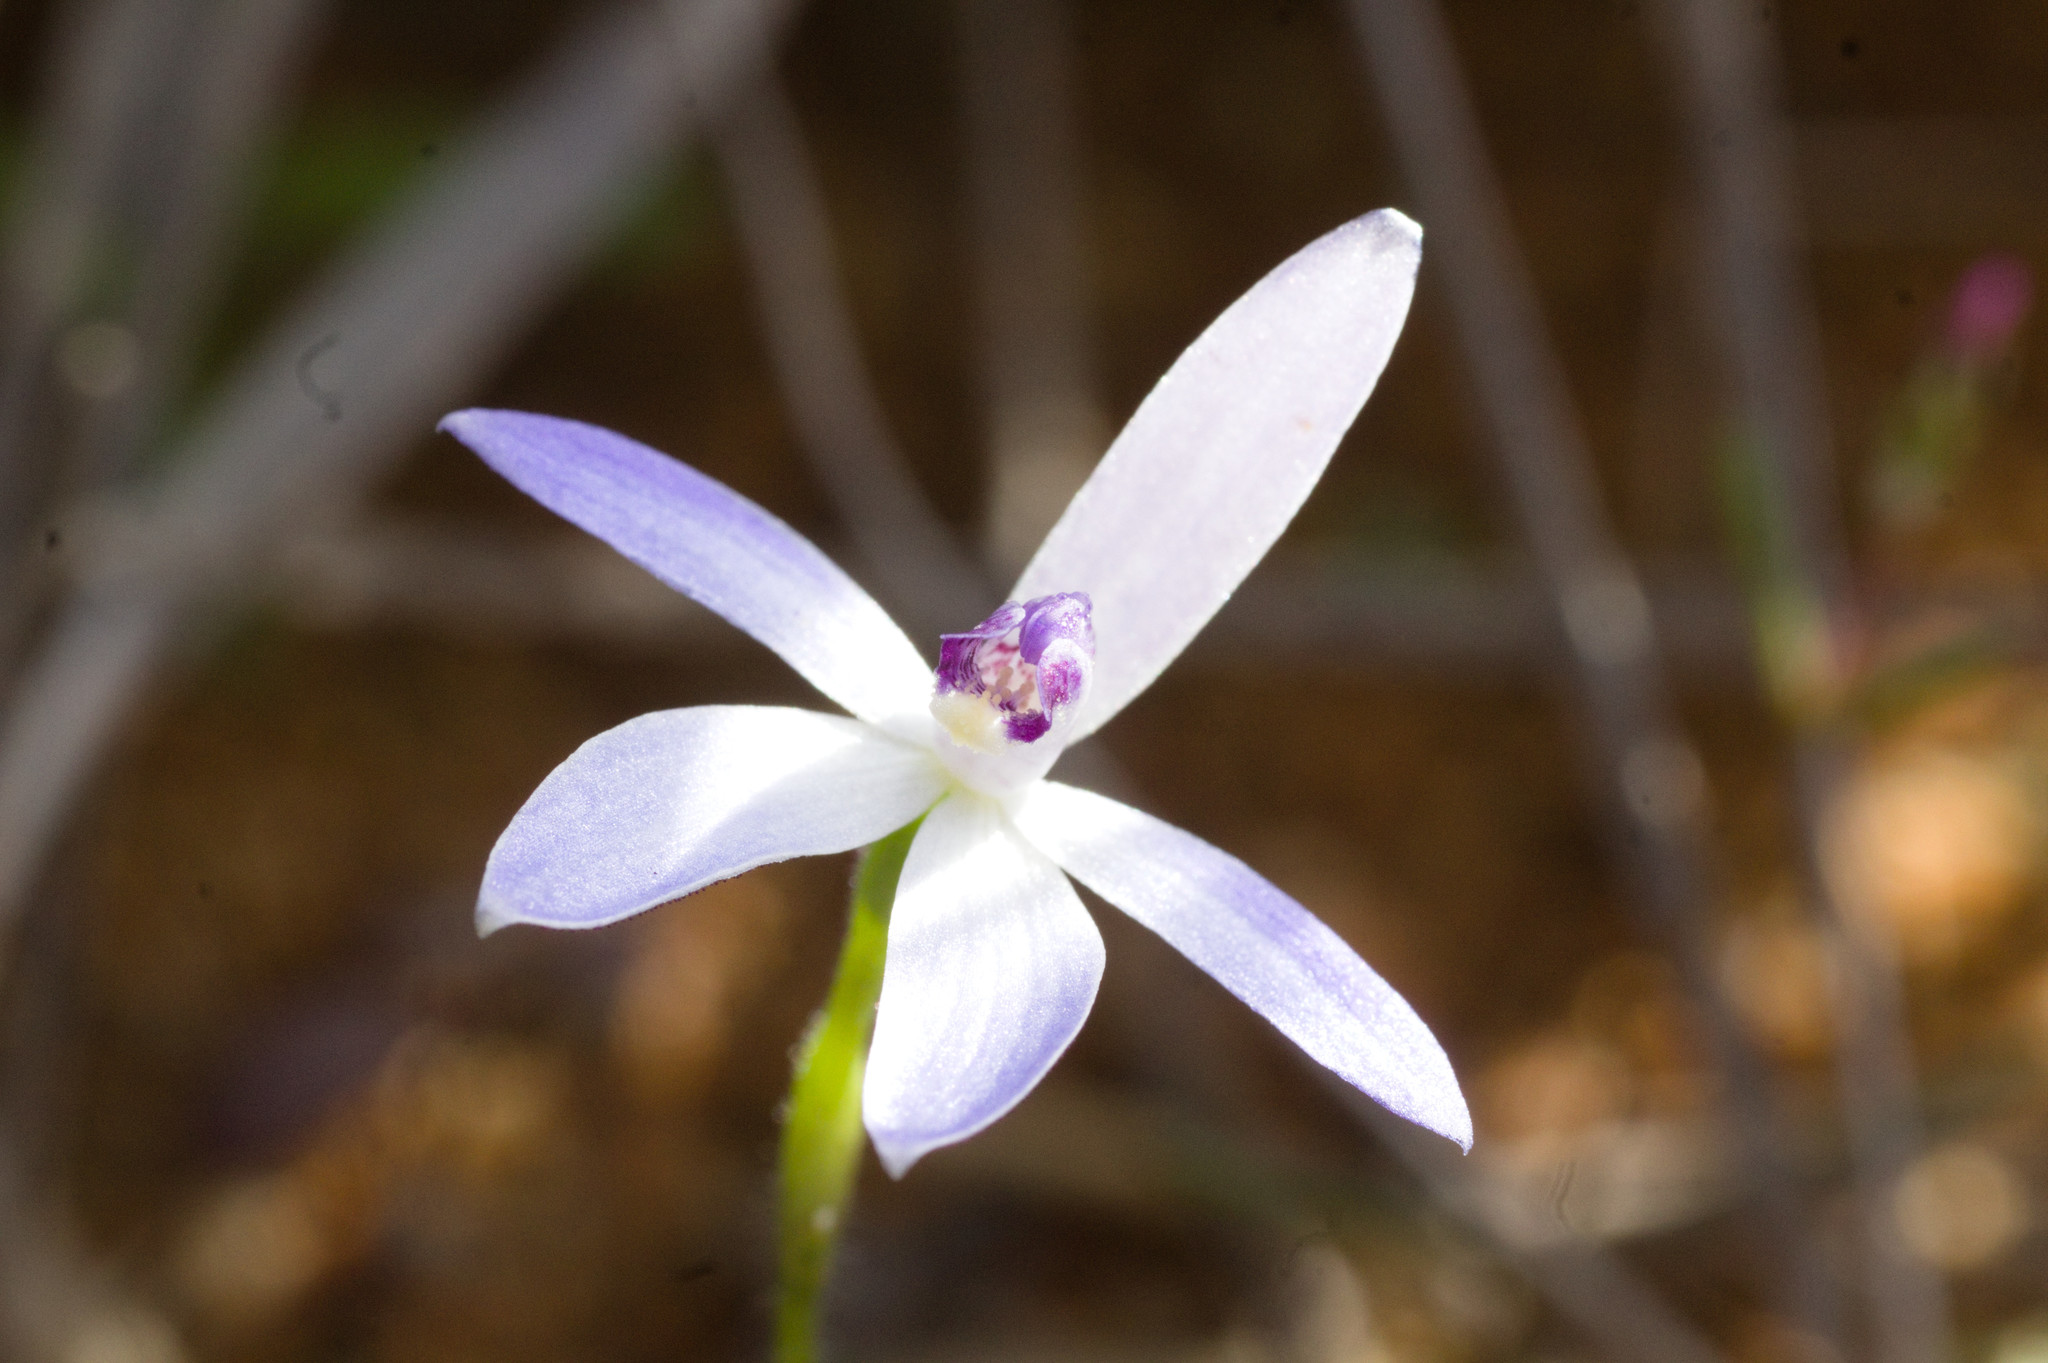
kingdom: Plantae
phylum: Tracheophyta
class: Liliopsida
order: Asparagales
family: Orchidaceae
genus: Caladenia
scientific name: Caladenia amplexans
